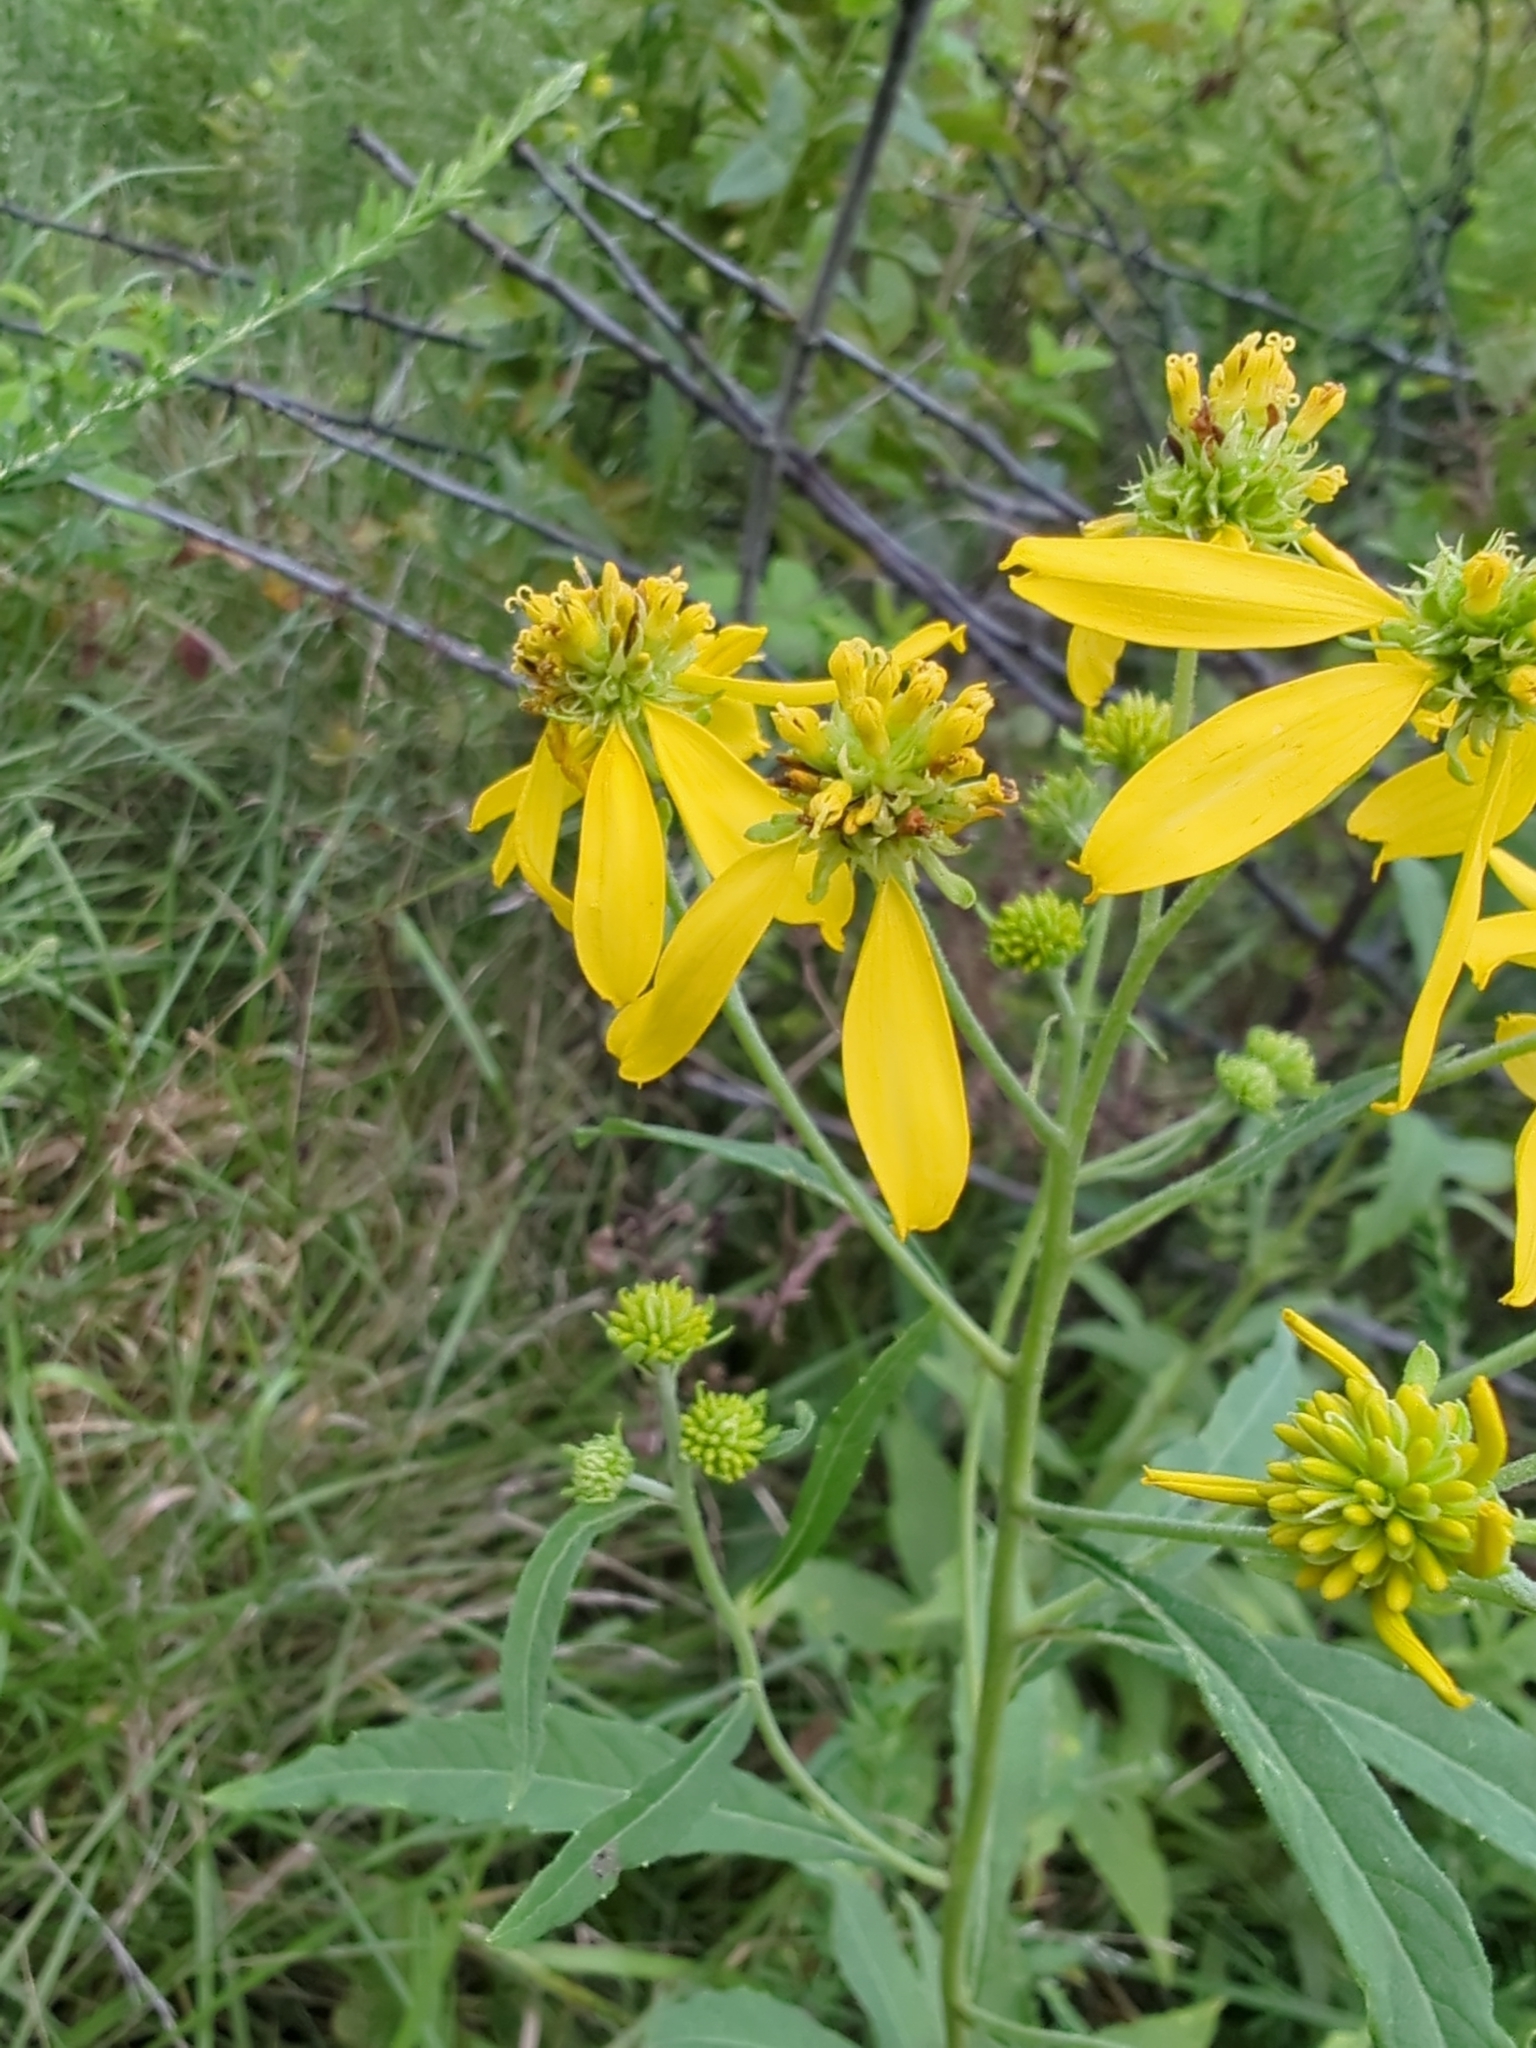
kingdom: Plantae
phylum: Tracheophyta
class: Magnoliopsida
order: Asterales
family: Asteraceae
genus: Verbesina
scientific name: Verbesina alternifolia
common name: Wingstem
